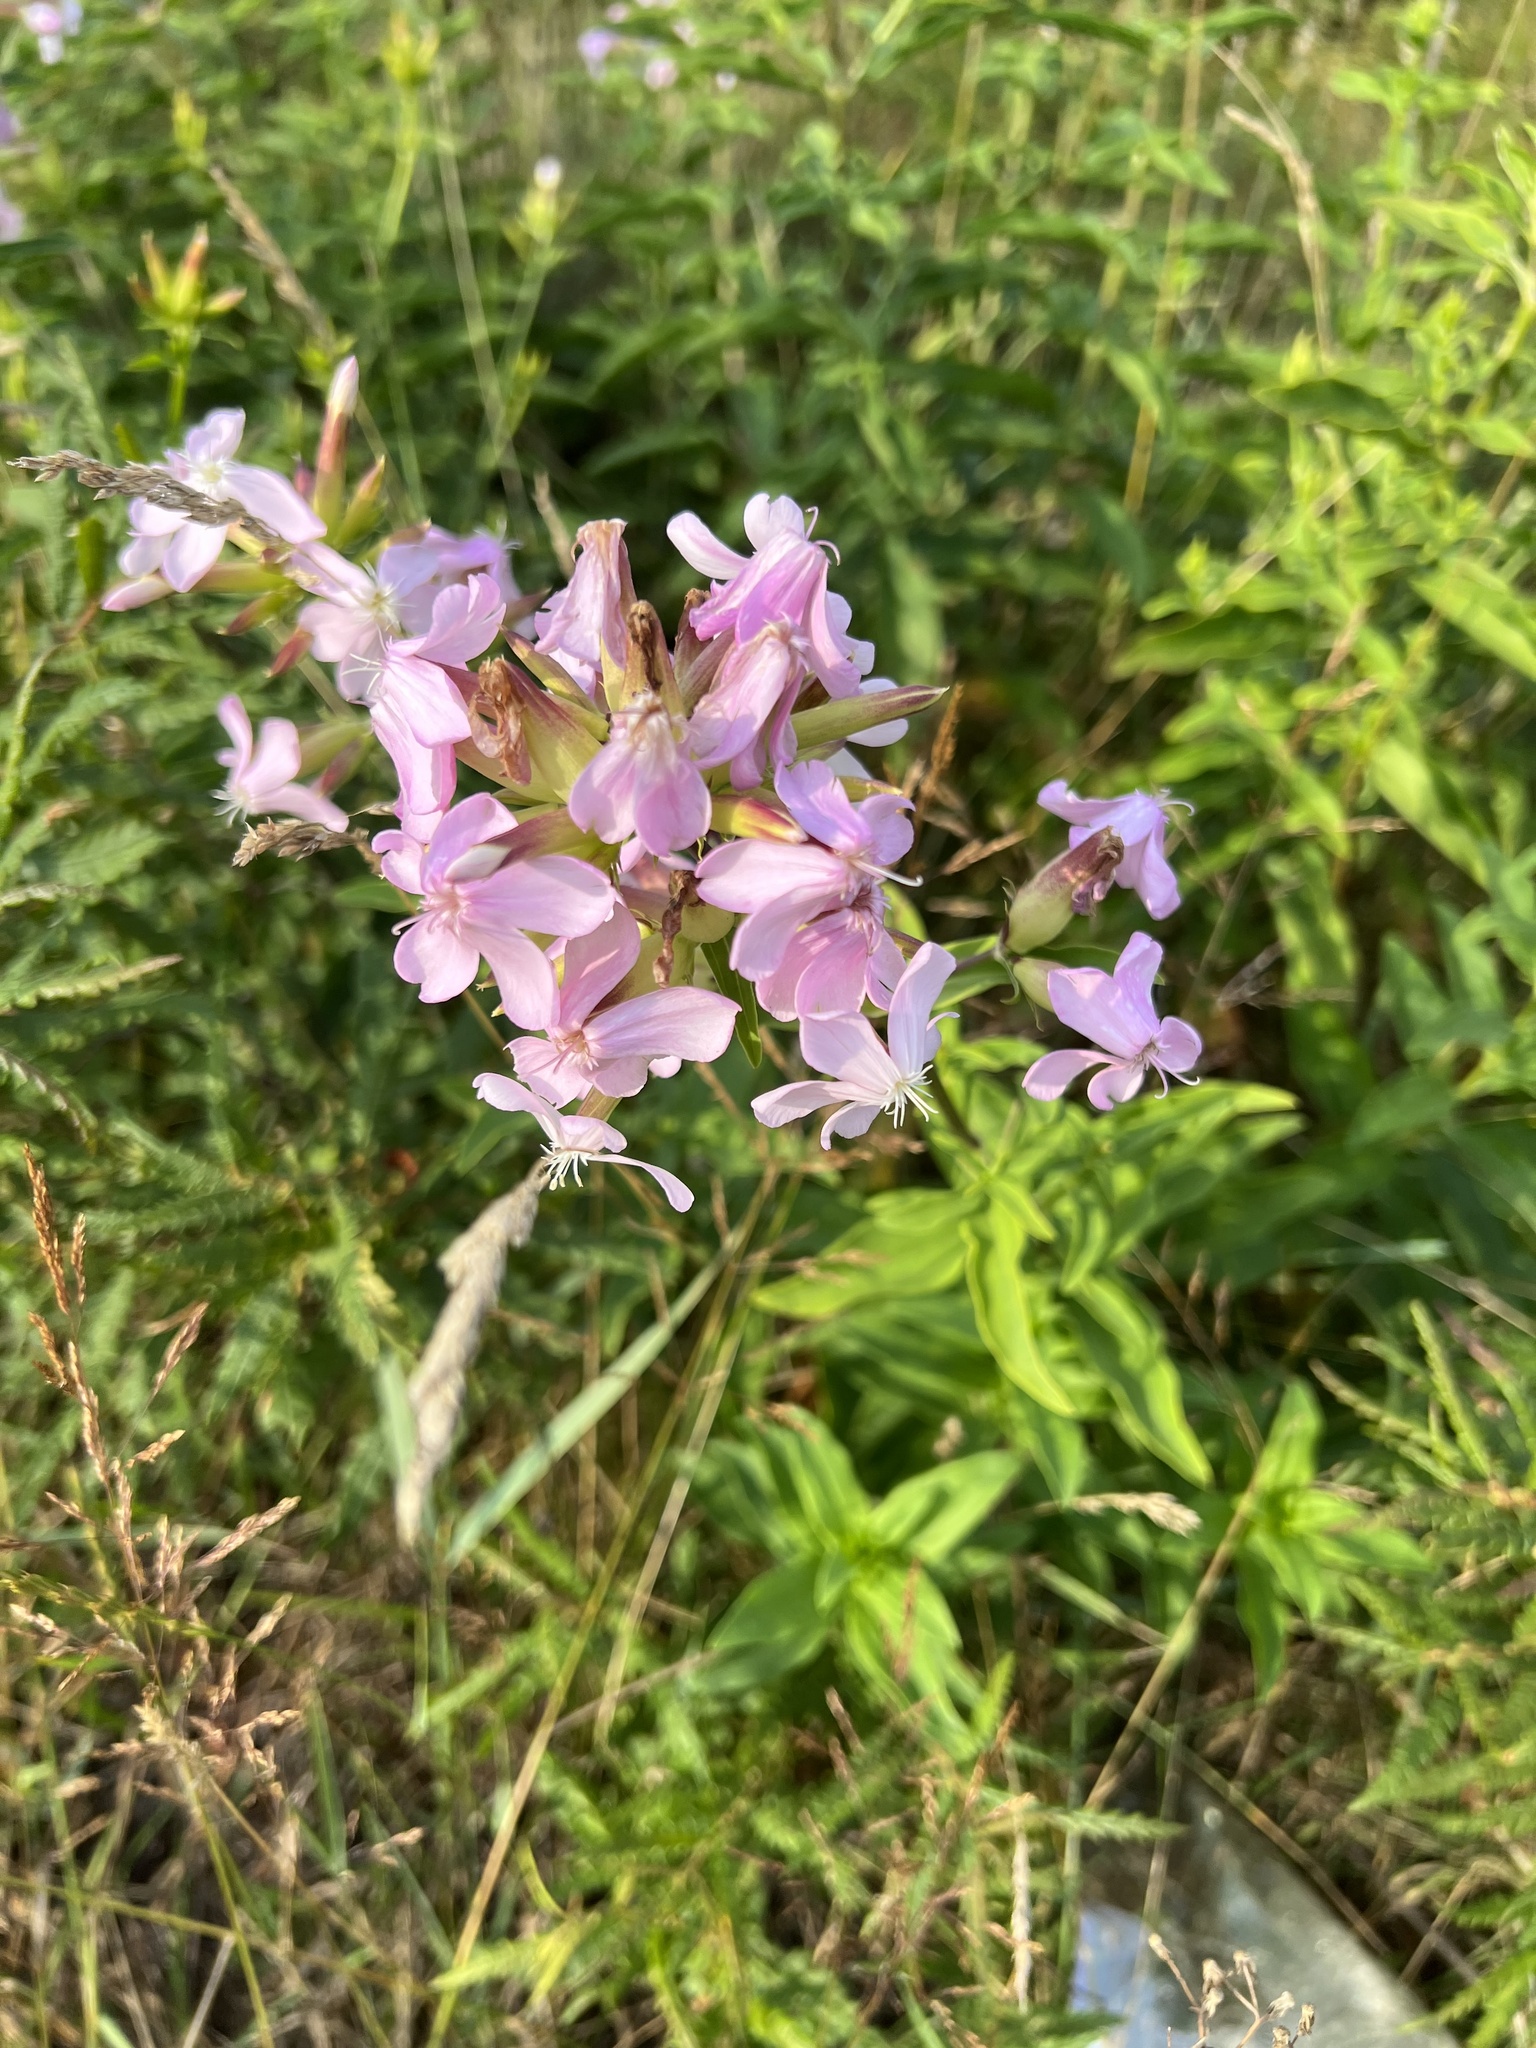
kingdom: Plantae
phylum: Tracheophyta
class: Magnoliopsida
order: Caryophyllales
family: Caryophyllaceae
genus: Saponaria
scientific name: Saponaria officinalis
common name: Soapwort
